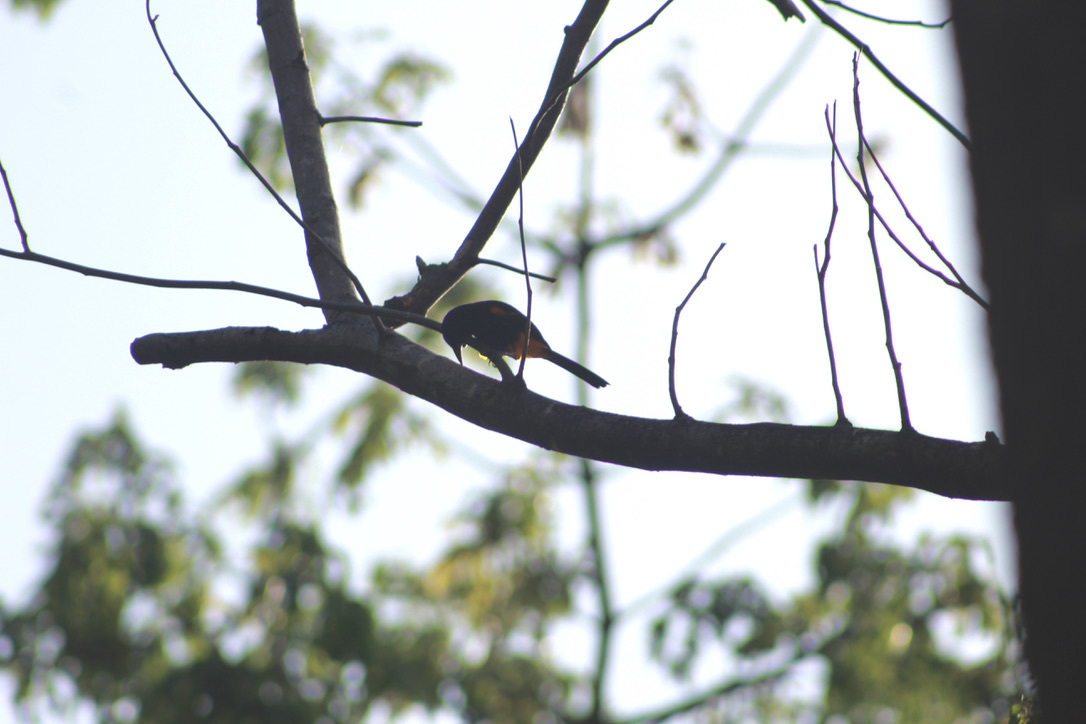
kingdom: Animalia
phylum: Chordata
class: Aves
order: Passeriformes
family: Icteridae
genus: Icterus
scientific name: Icterus laudabilis
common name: St. lucia oriole
